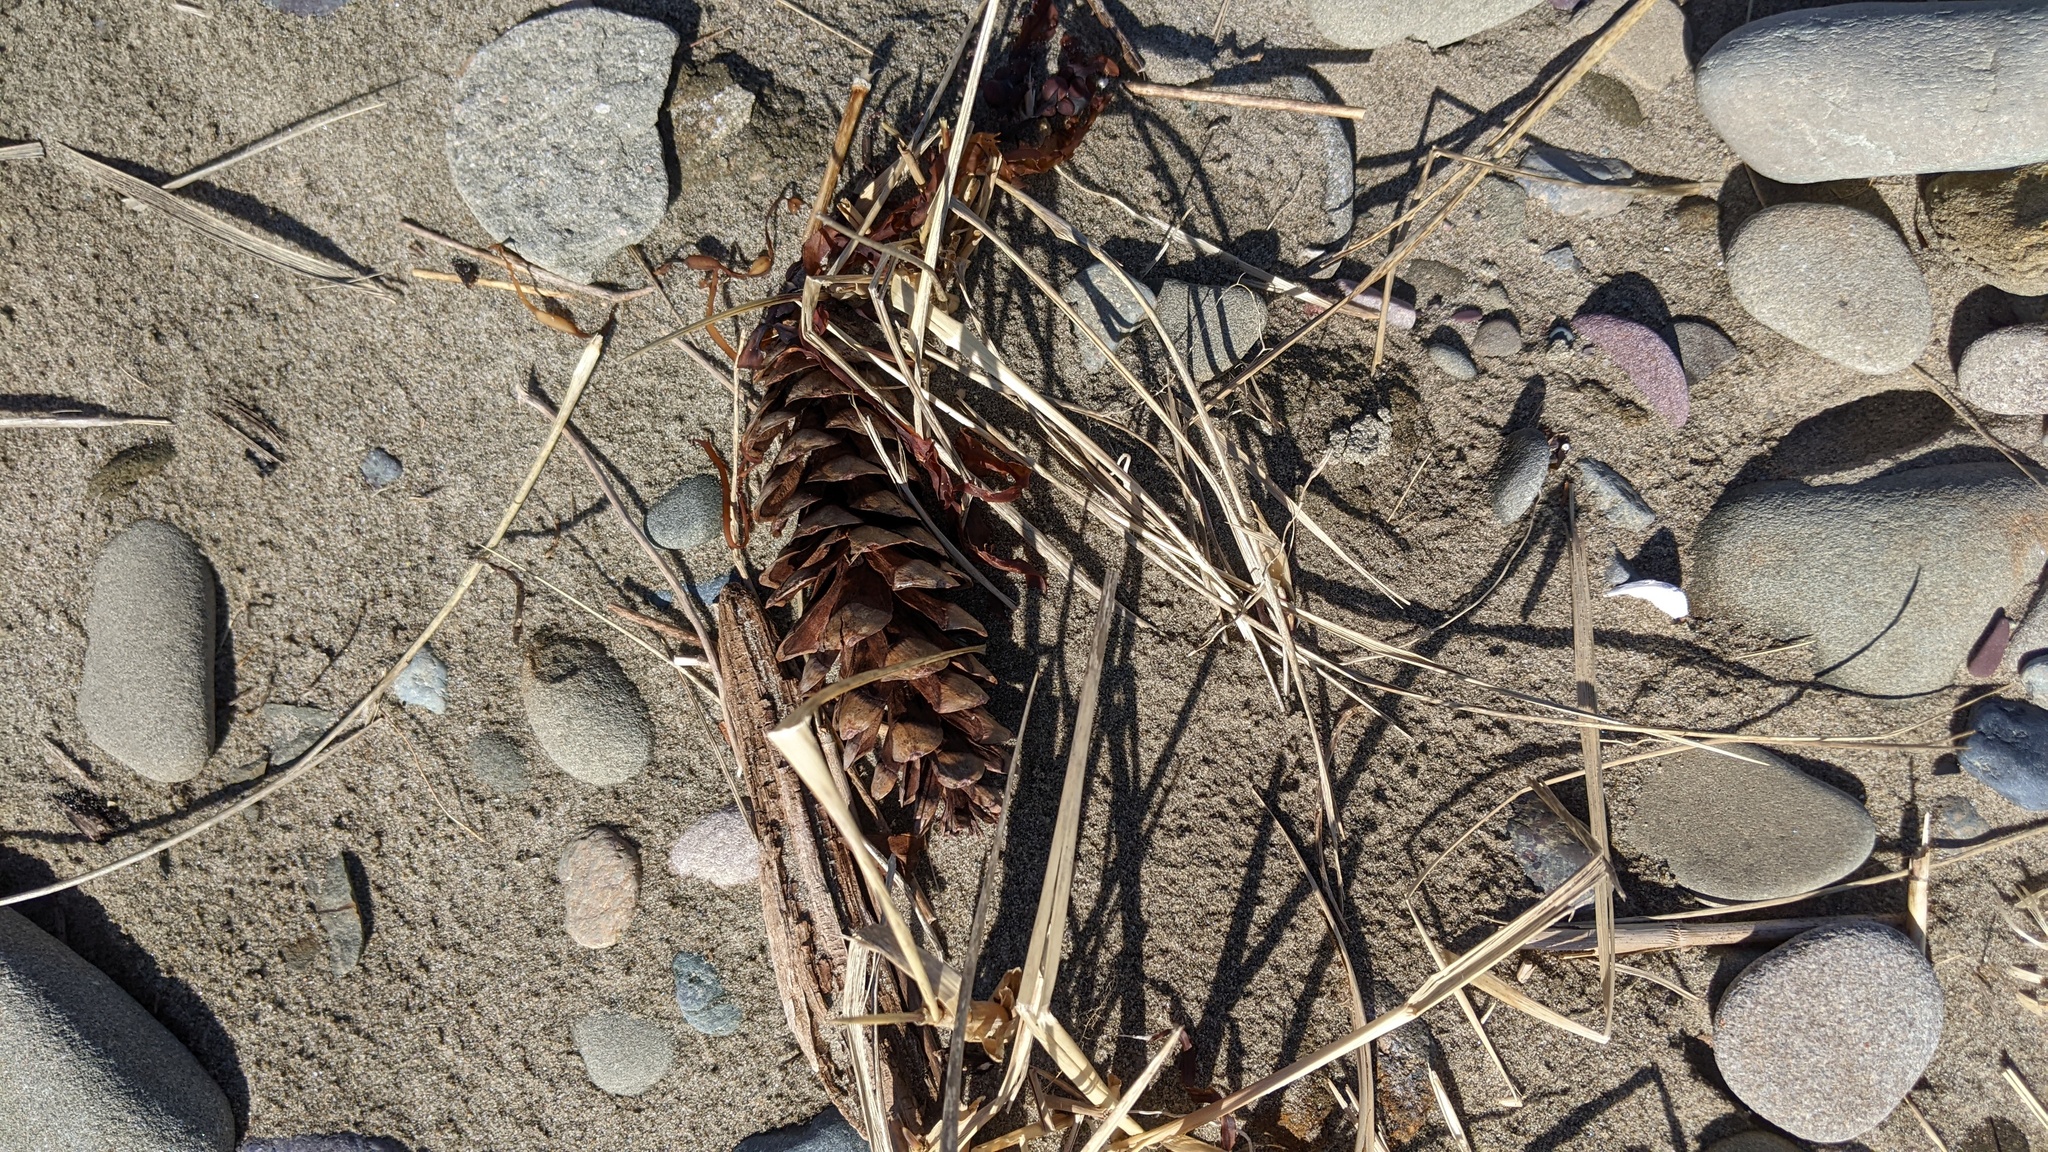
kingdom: Plantae
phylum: Tracheophyta
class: Pinopsida
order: Pinales
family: Pinaceae
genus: Pinus
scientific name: Pinus strobus
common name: Weymouth pine
